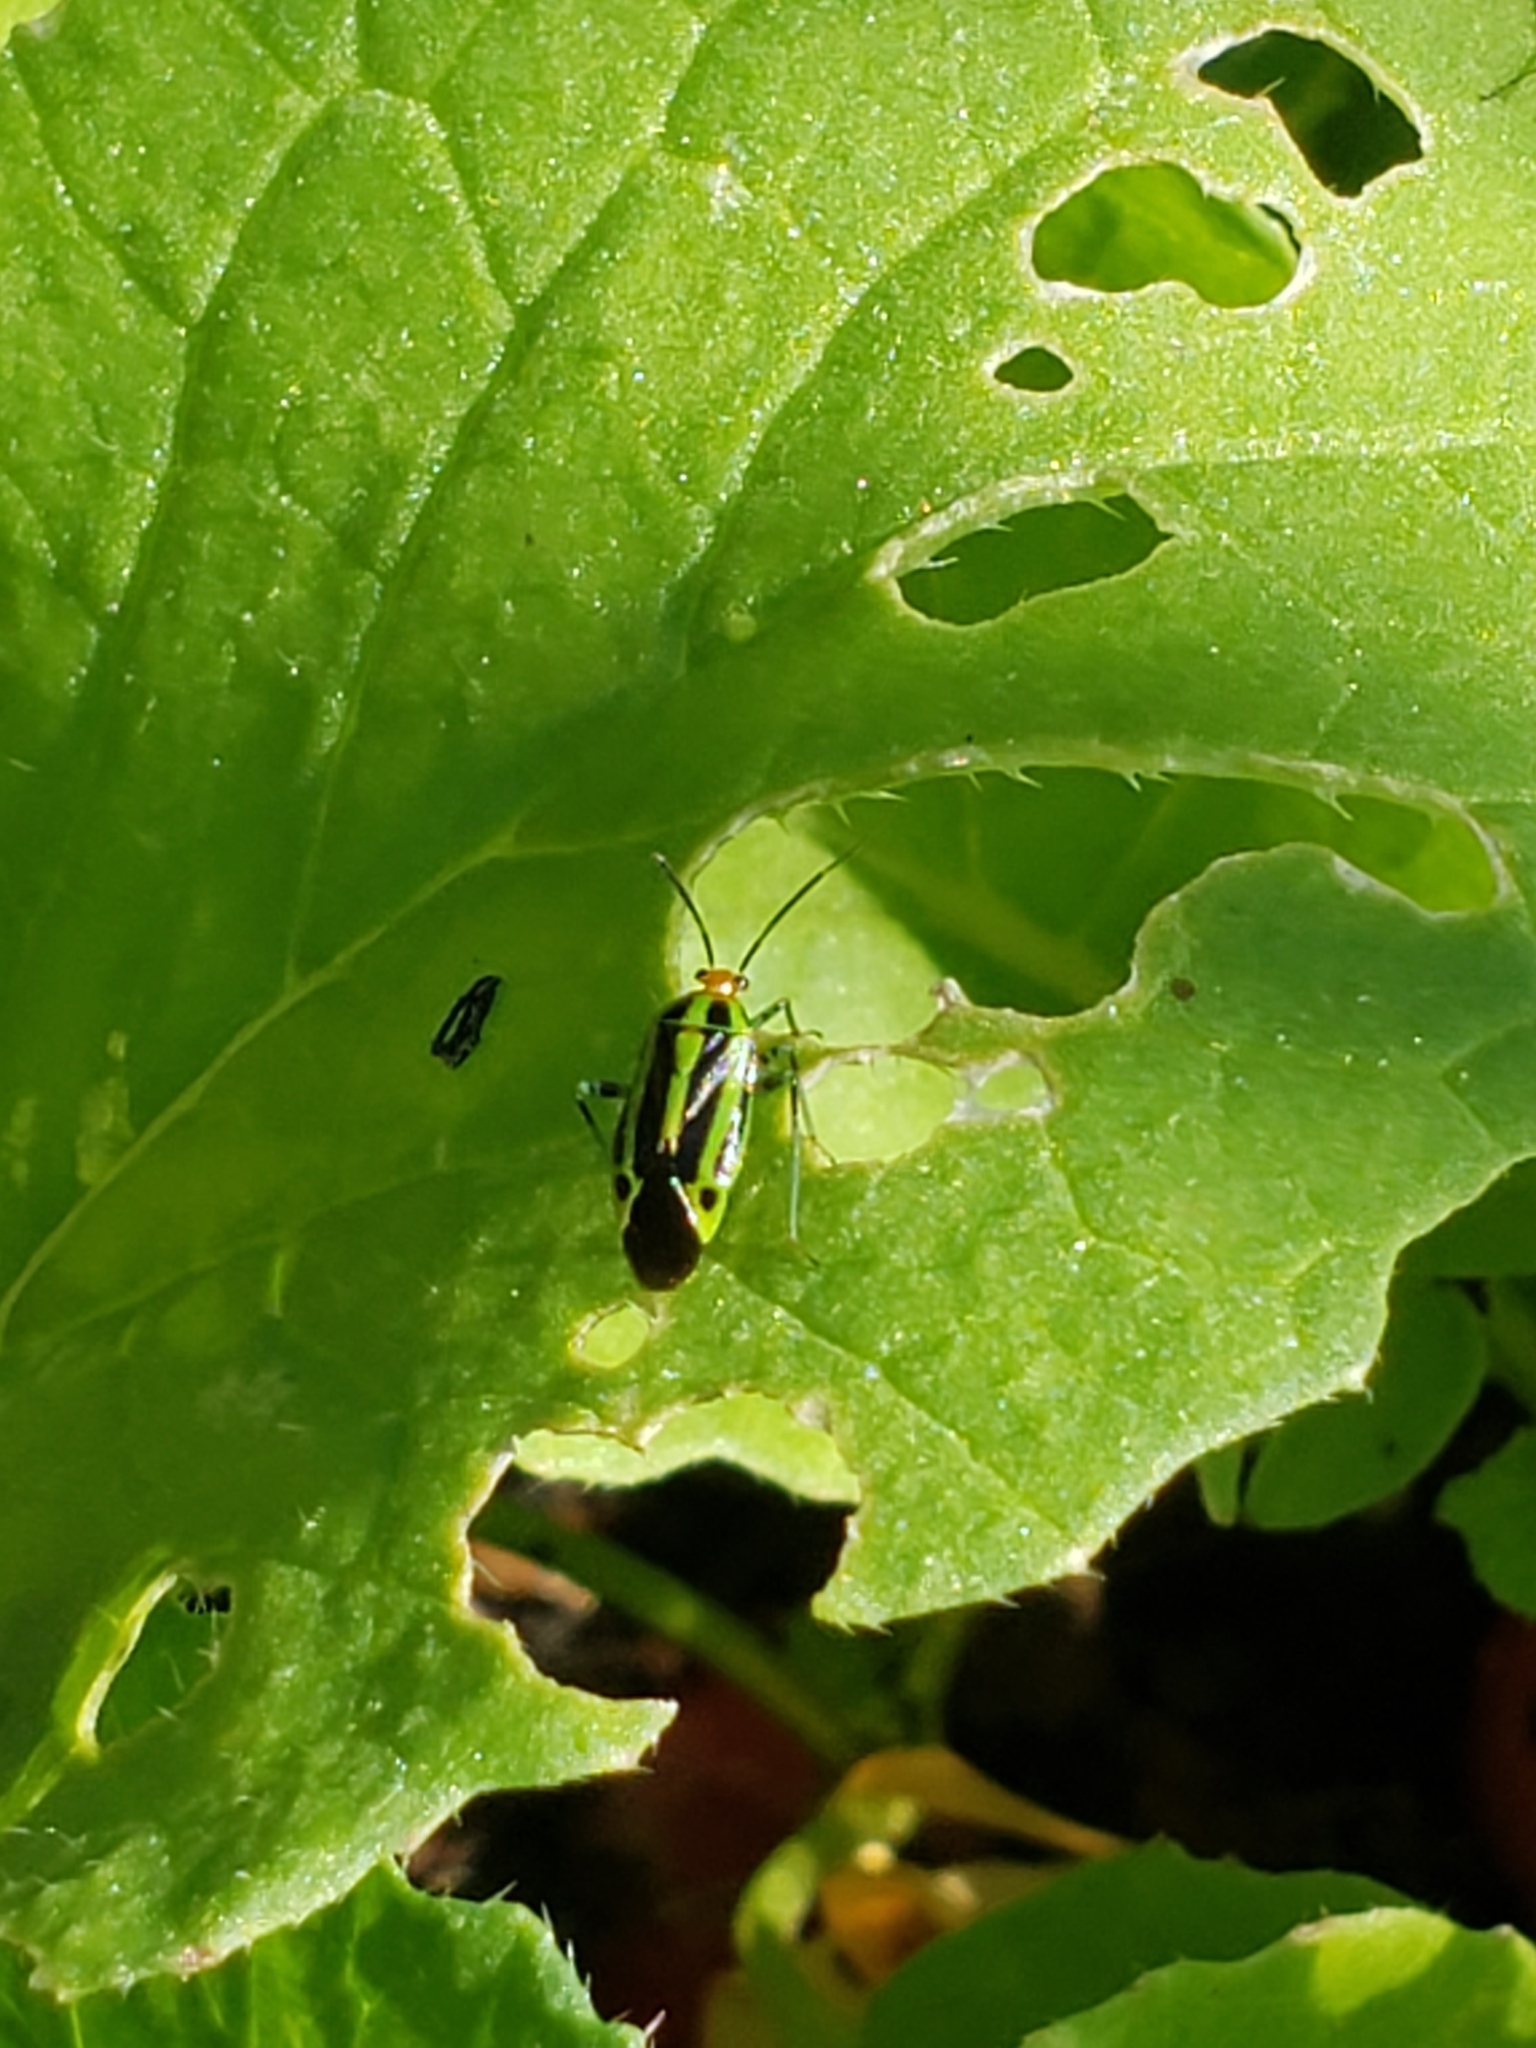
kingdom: Animalia
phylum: Arthropoda
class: Insecta
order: Hemiptera
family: Miridae
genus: Poecilocapsus
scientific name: Poecilocapsus lineatus
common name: Four-lined plant bug
